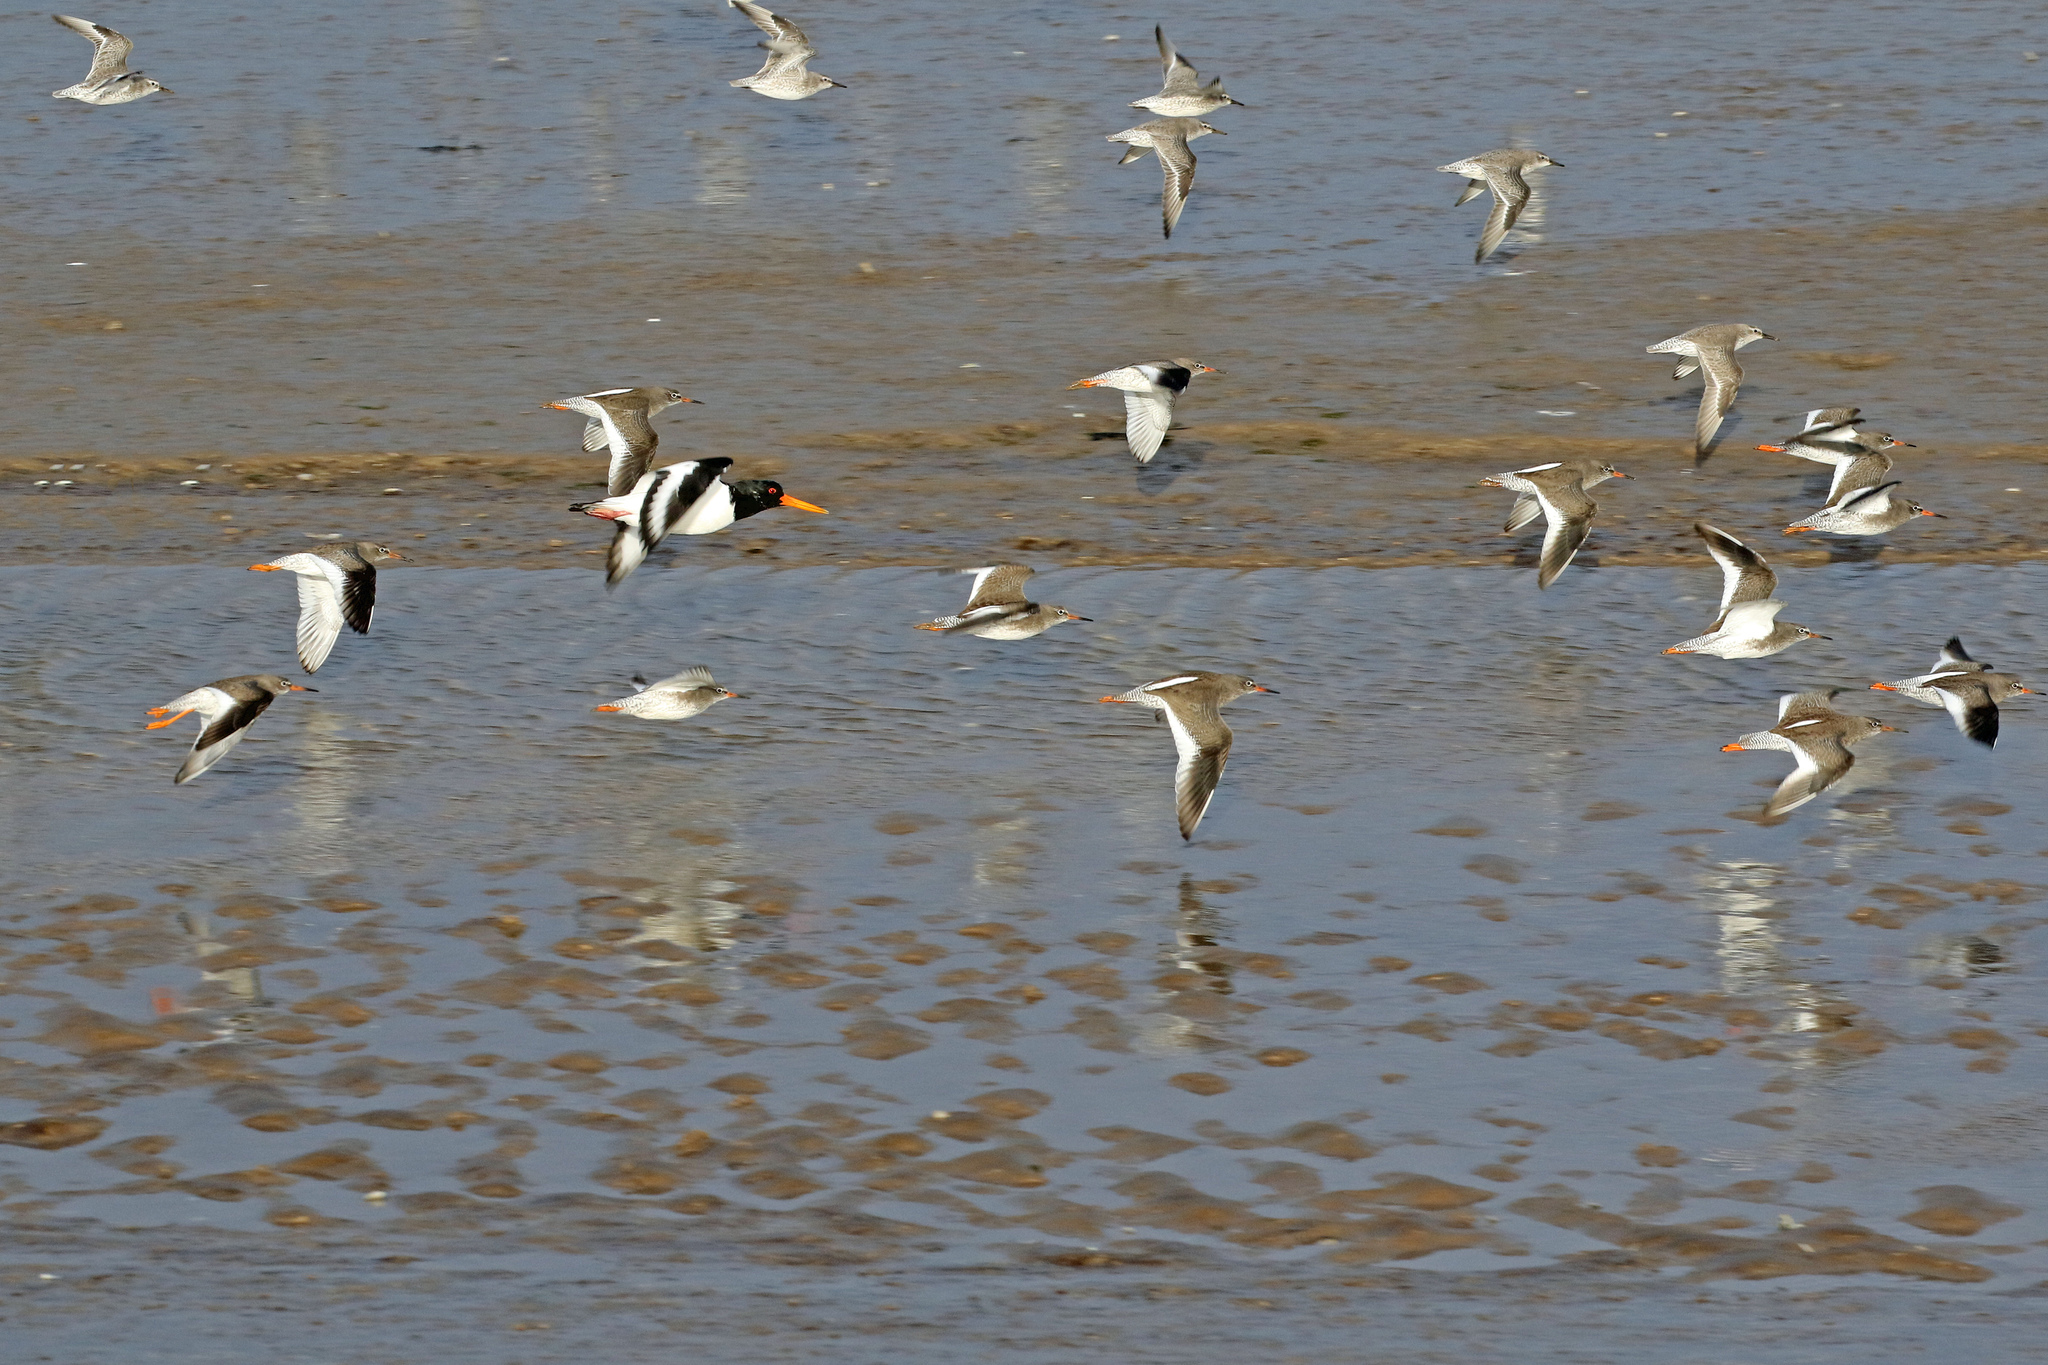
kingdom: Animalia
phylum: Chordata
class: Aves
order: Charadriiformes
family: Haematopodidae
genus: Haematopus
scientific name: Haematopus ostralegus
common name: Eurasian oystercatcher
